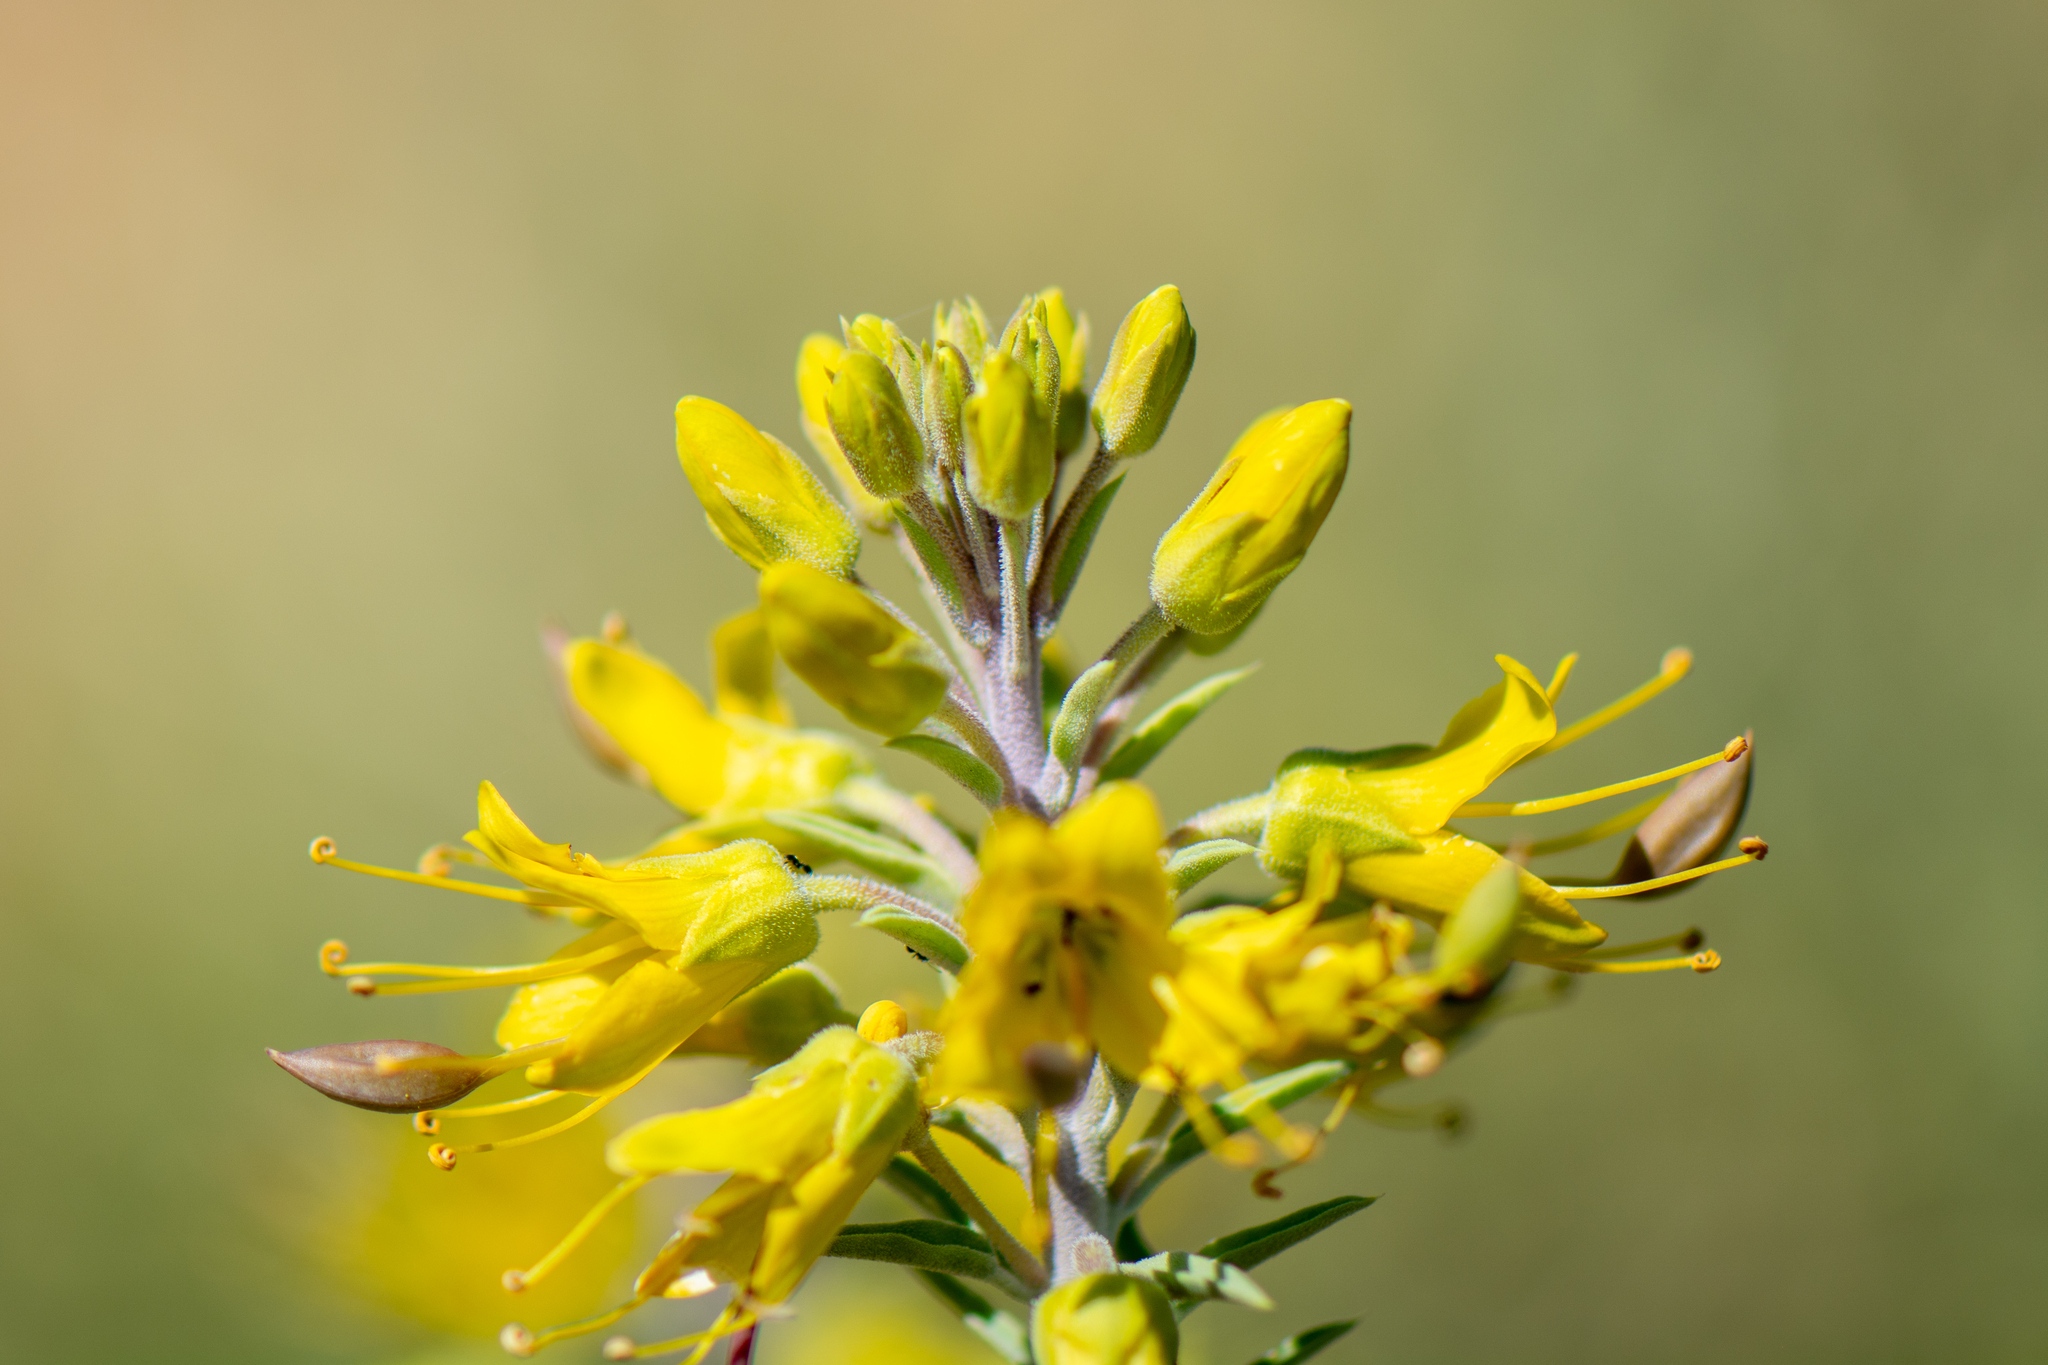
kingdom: Plantae
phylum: Tracheophyta
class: Magnoliopsida
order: Brassicales
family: Cleomaceae
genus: Cleomella
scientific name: Cleomella arborea
